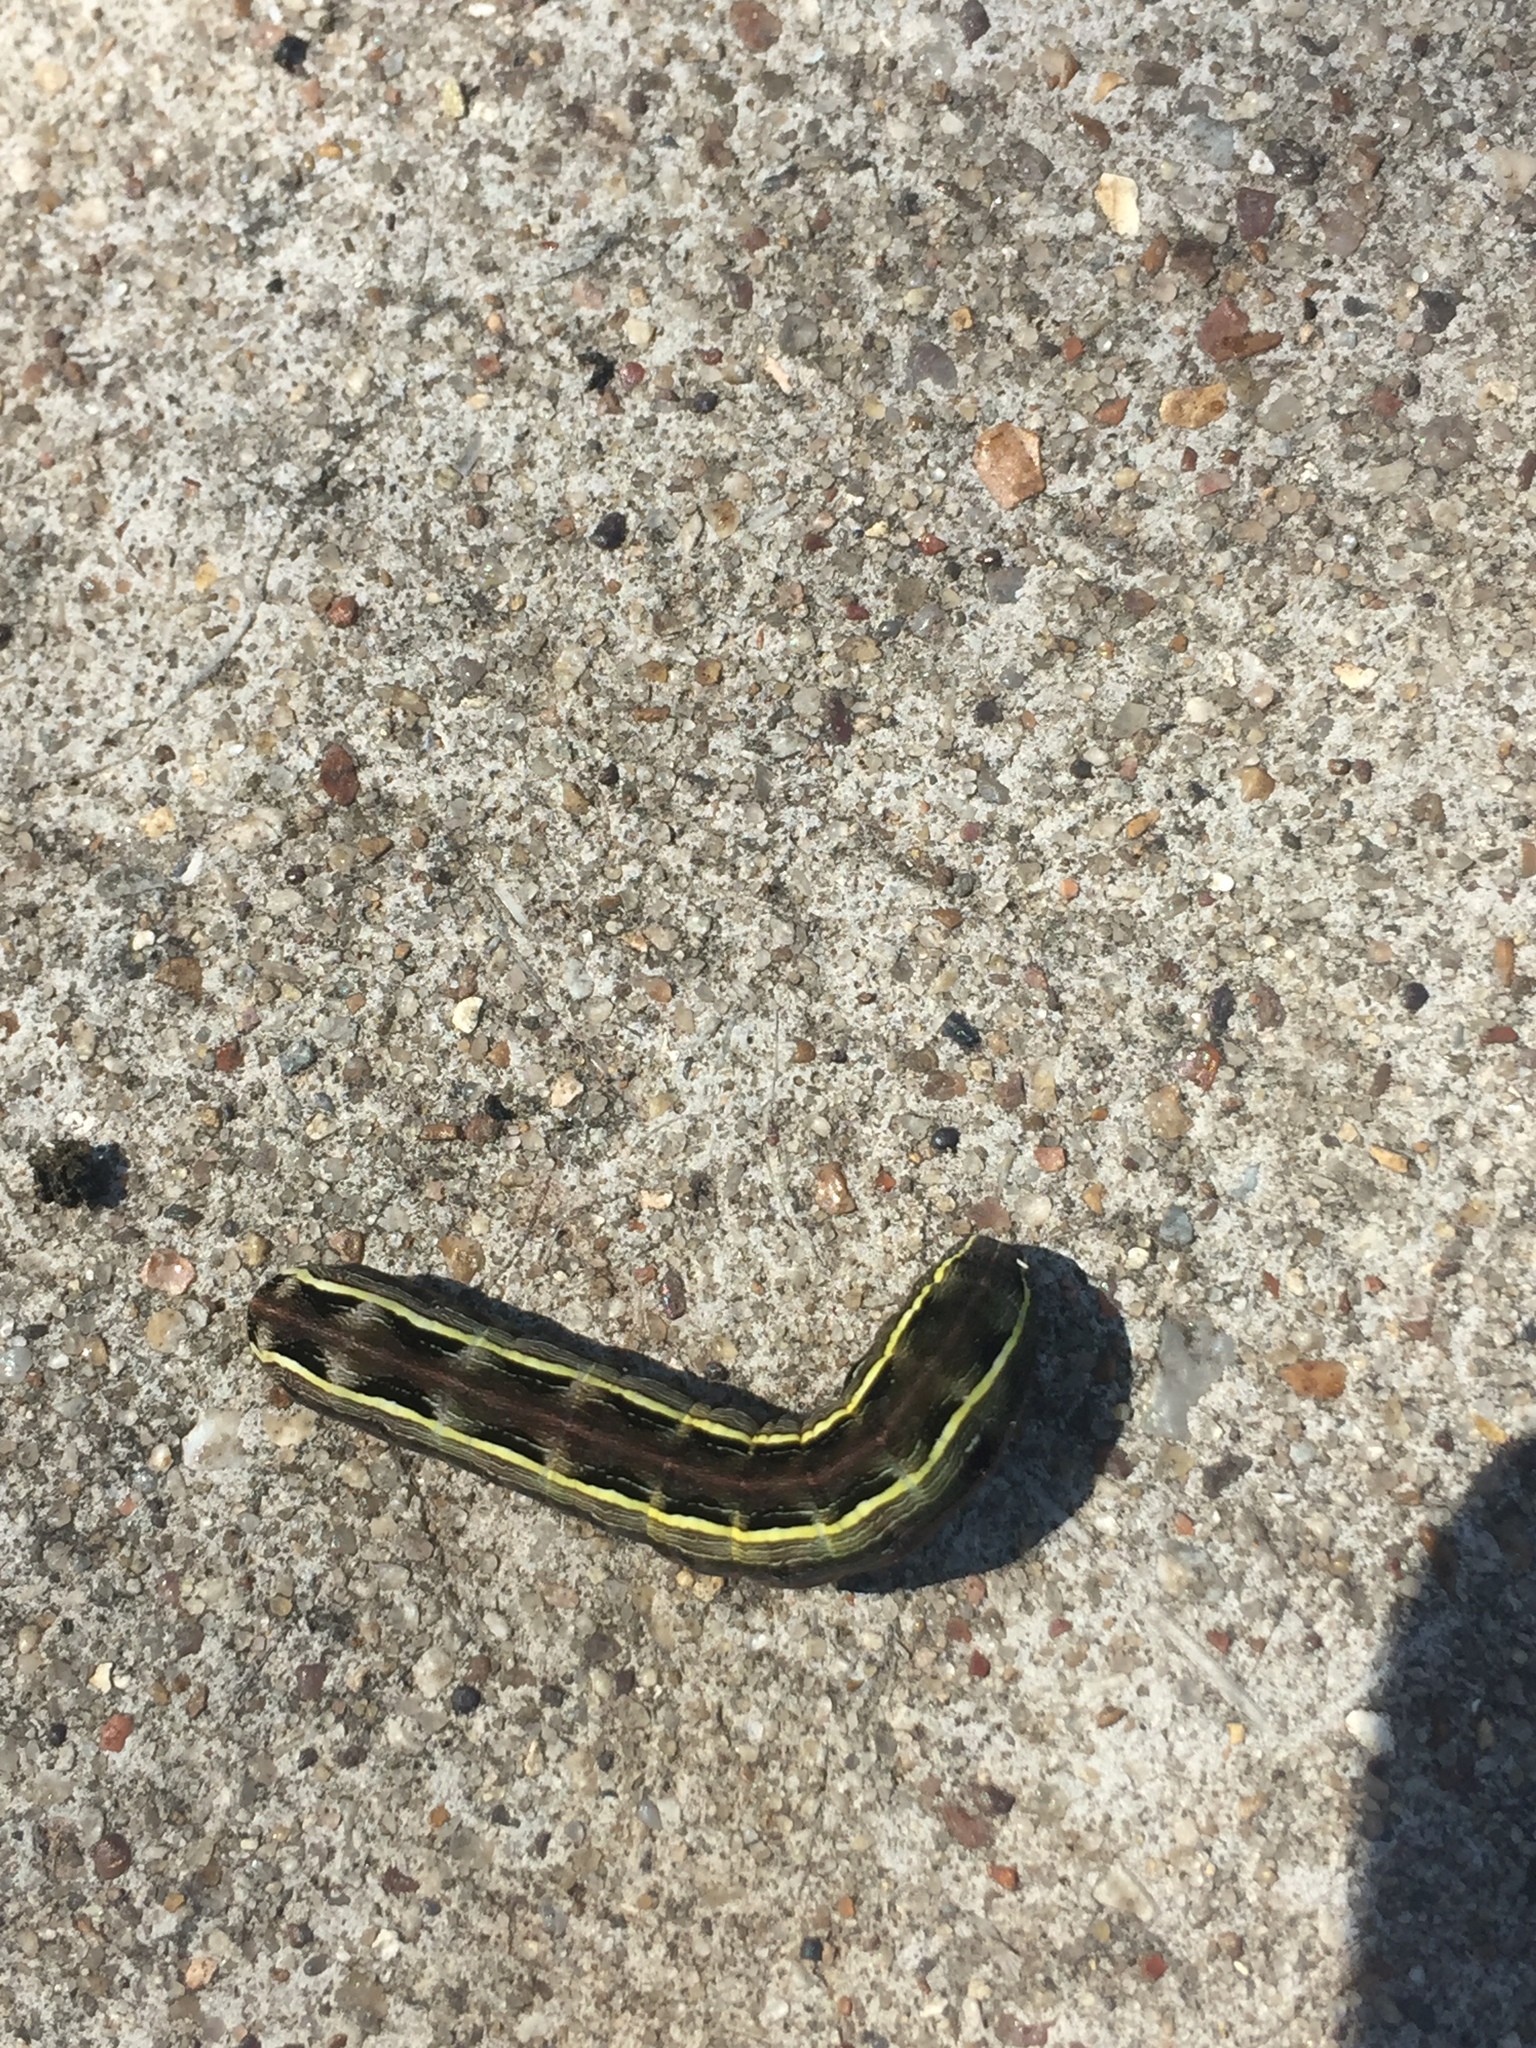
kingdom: Animalia
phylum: Arthropoda
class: Insecta
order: Lepidoptera
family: Noctuidae
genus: Spodoptera
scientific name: Spodoptera ornithogalli
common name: Yellow-striped armyworm
